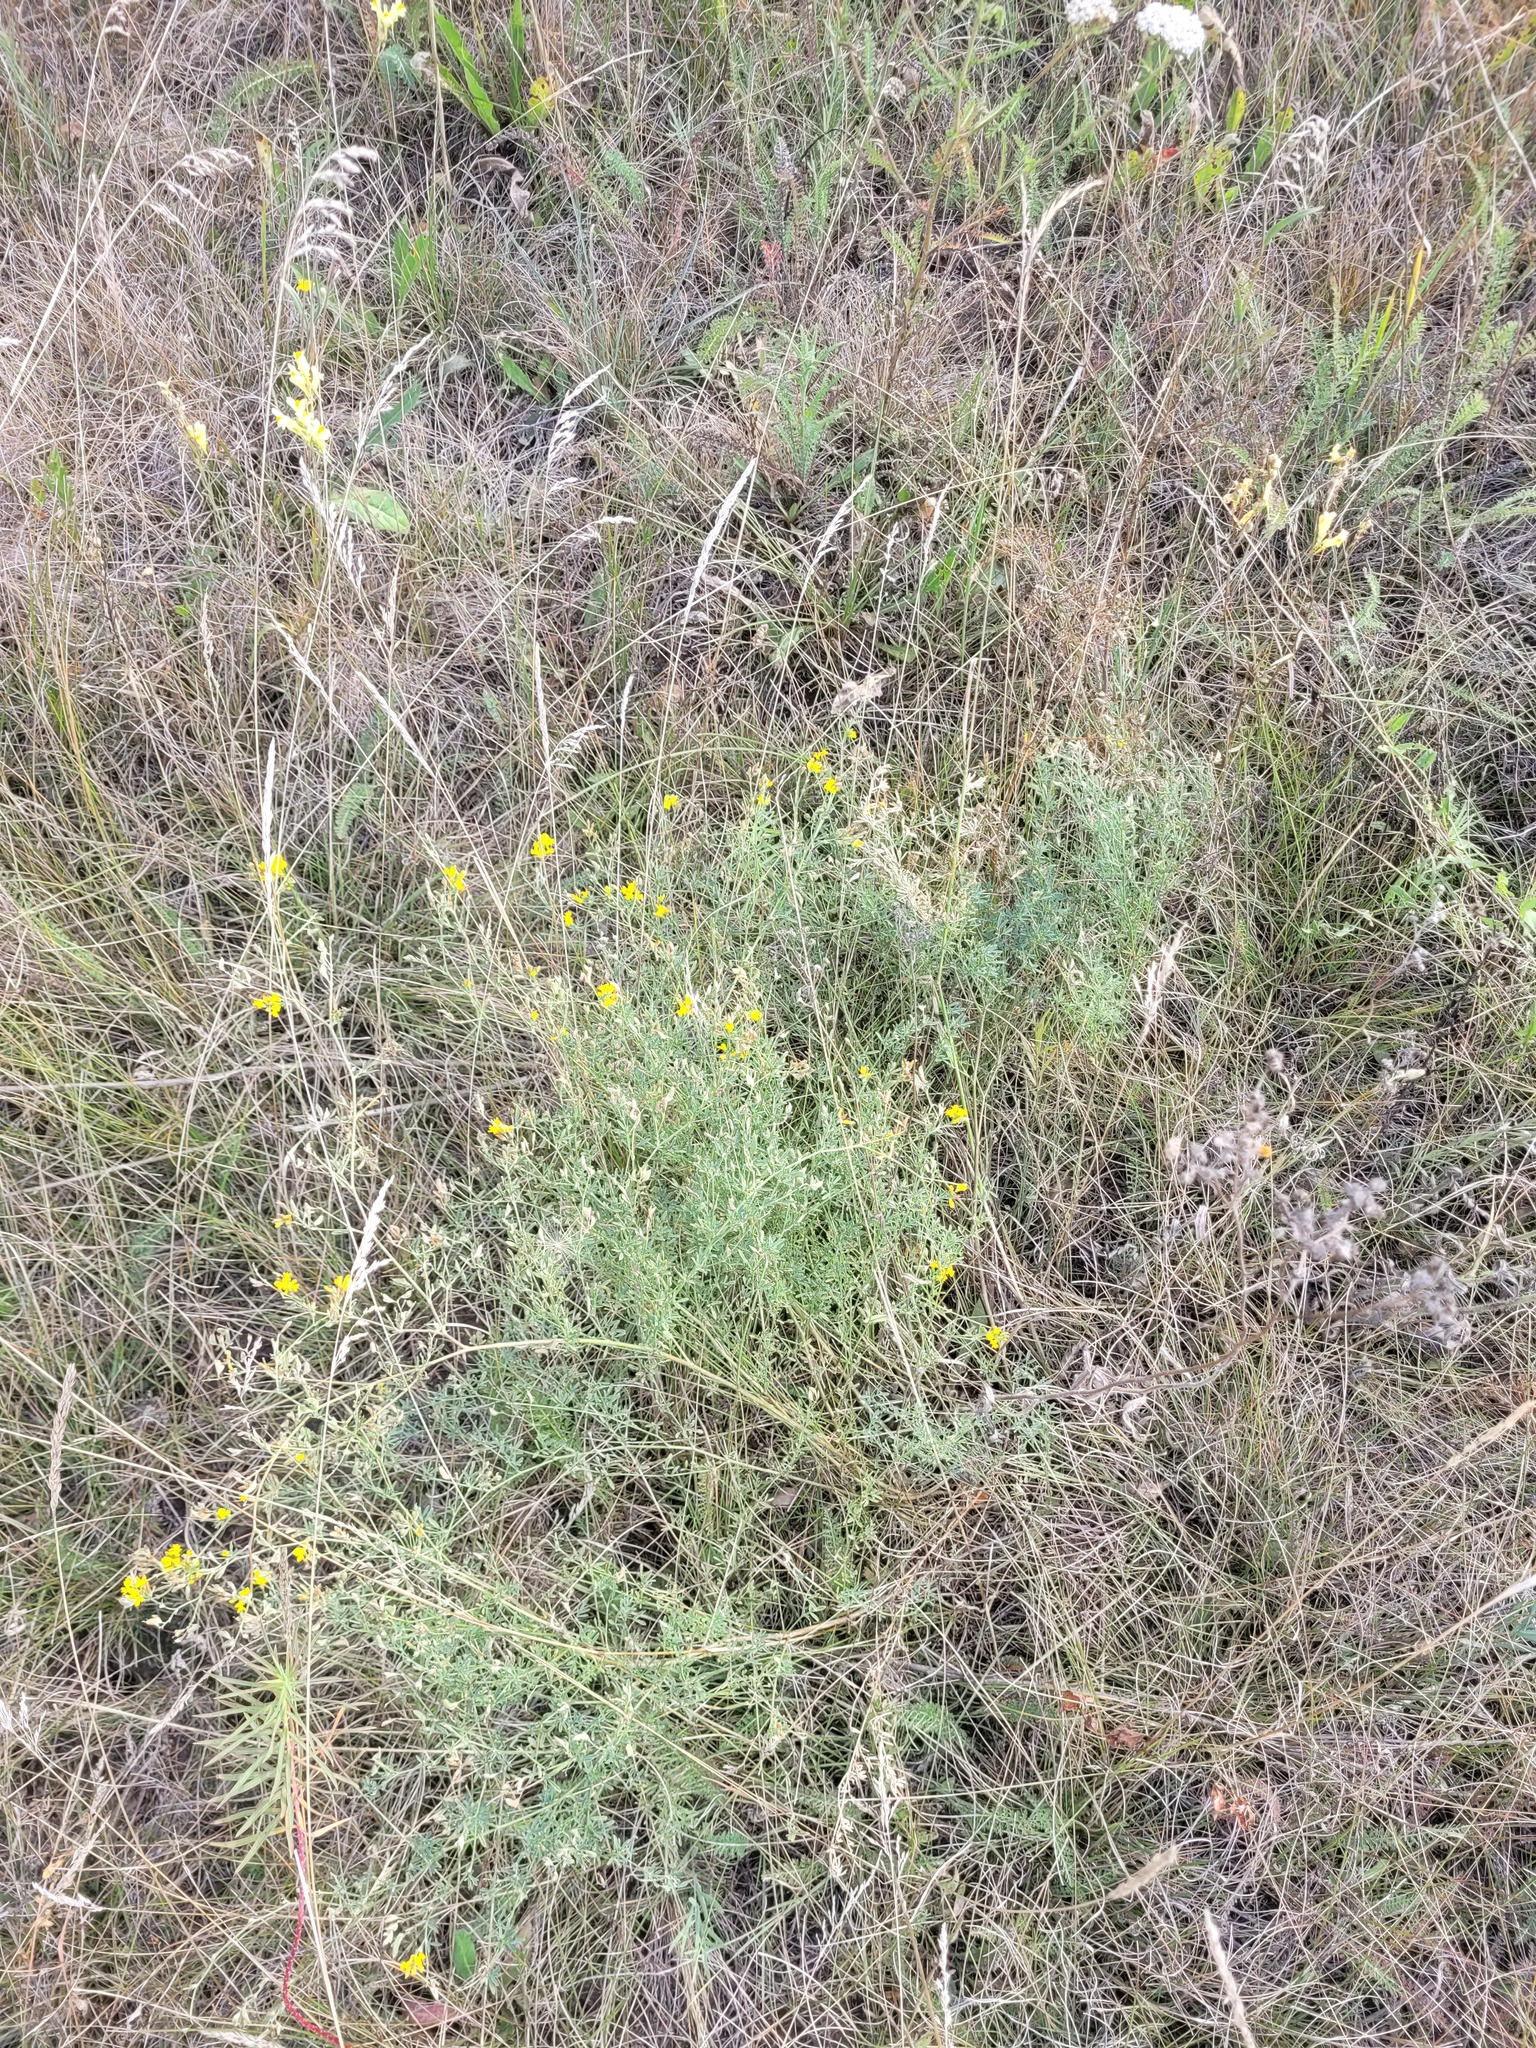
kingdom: Plantae
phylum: Tracheophyta
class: Magnoliopsida
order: Fabales
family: Fabaceae
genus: Medicago
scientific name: Medicago falcata
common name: Sickle medick
